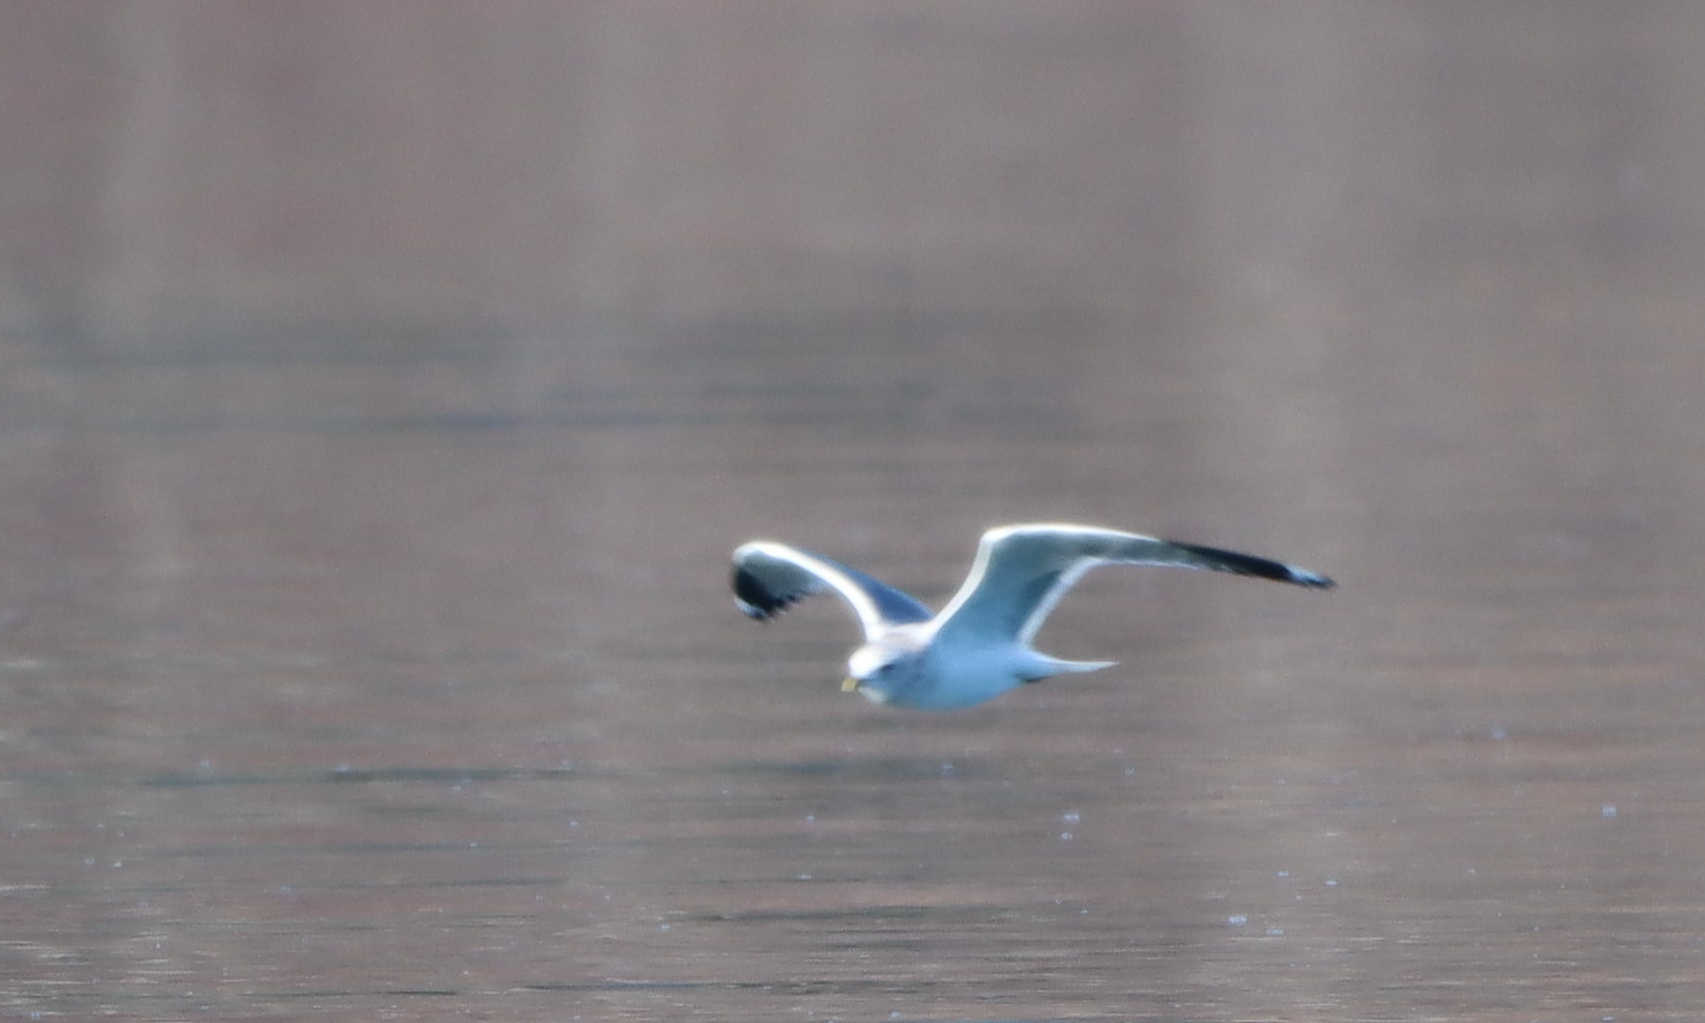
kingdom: Animalia
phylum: Chordata
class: Aves
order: Charadriiformes
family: Laridae
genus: Larus
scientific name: Larus brachyrhynchus
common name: Short-billed gull
